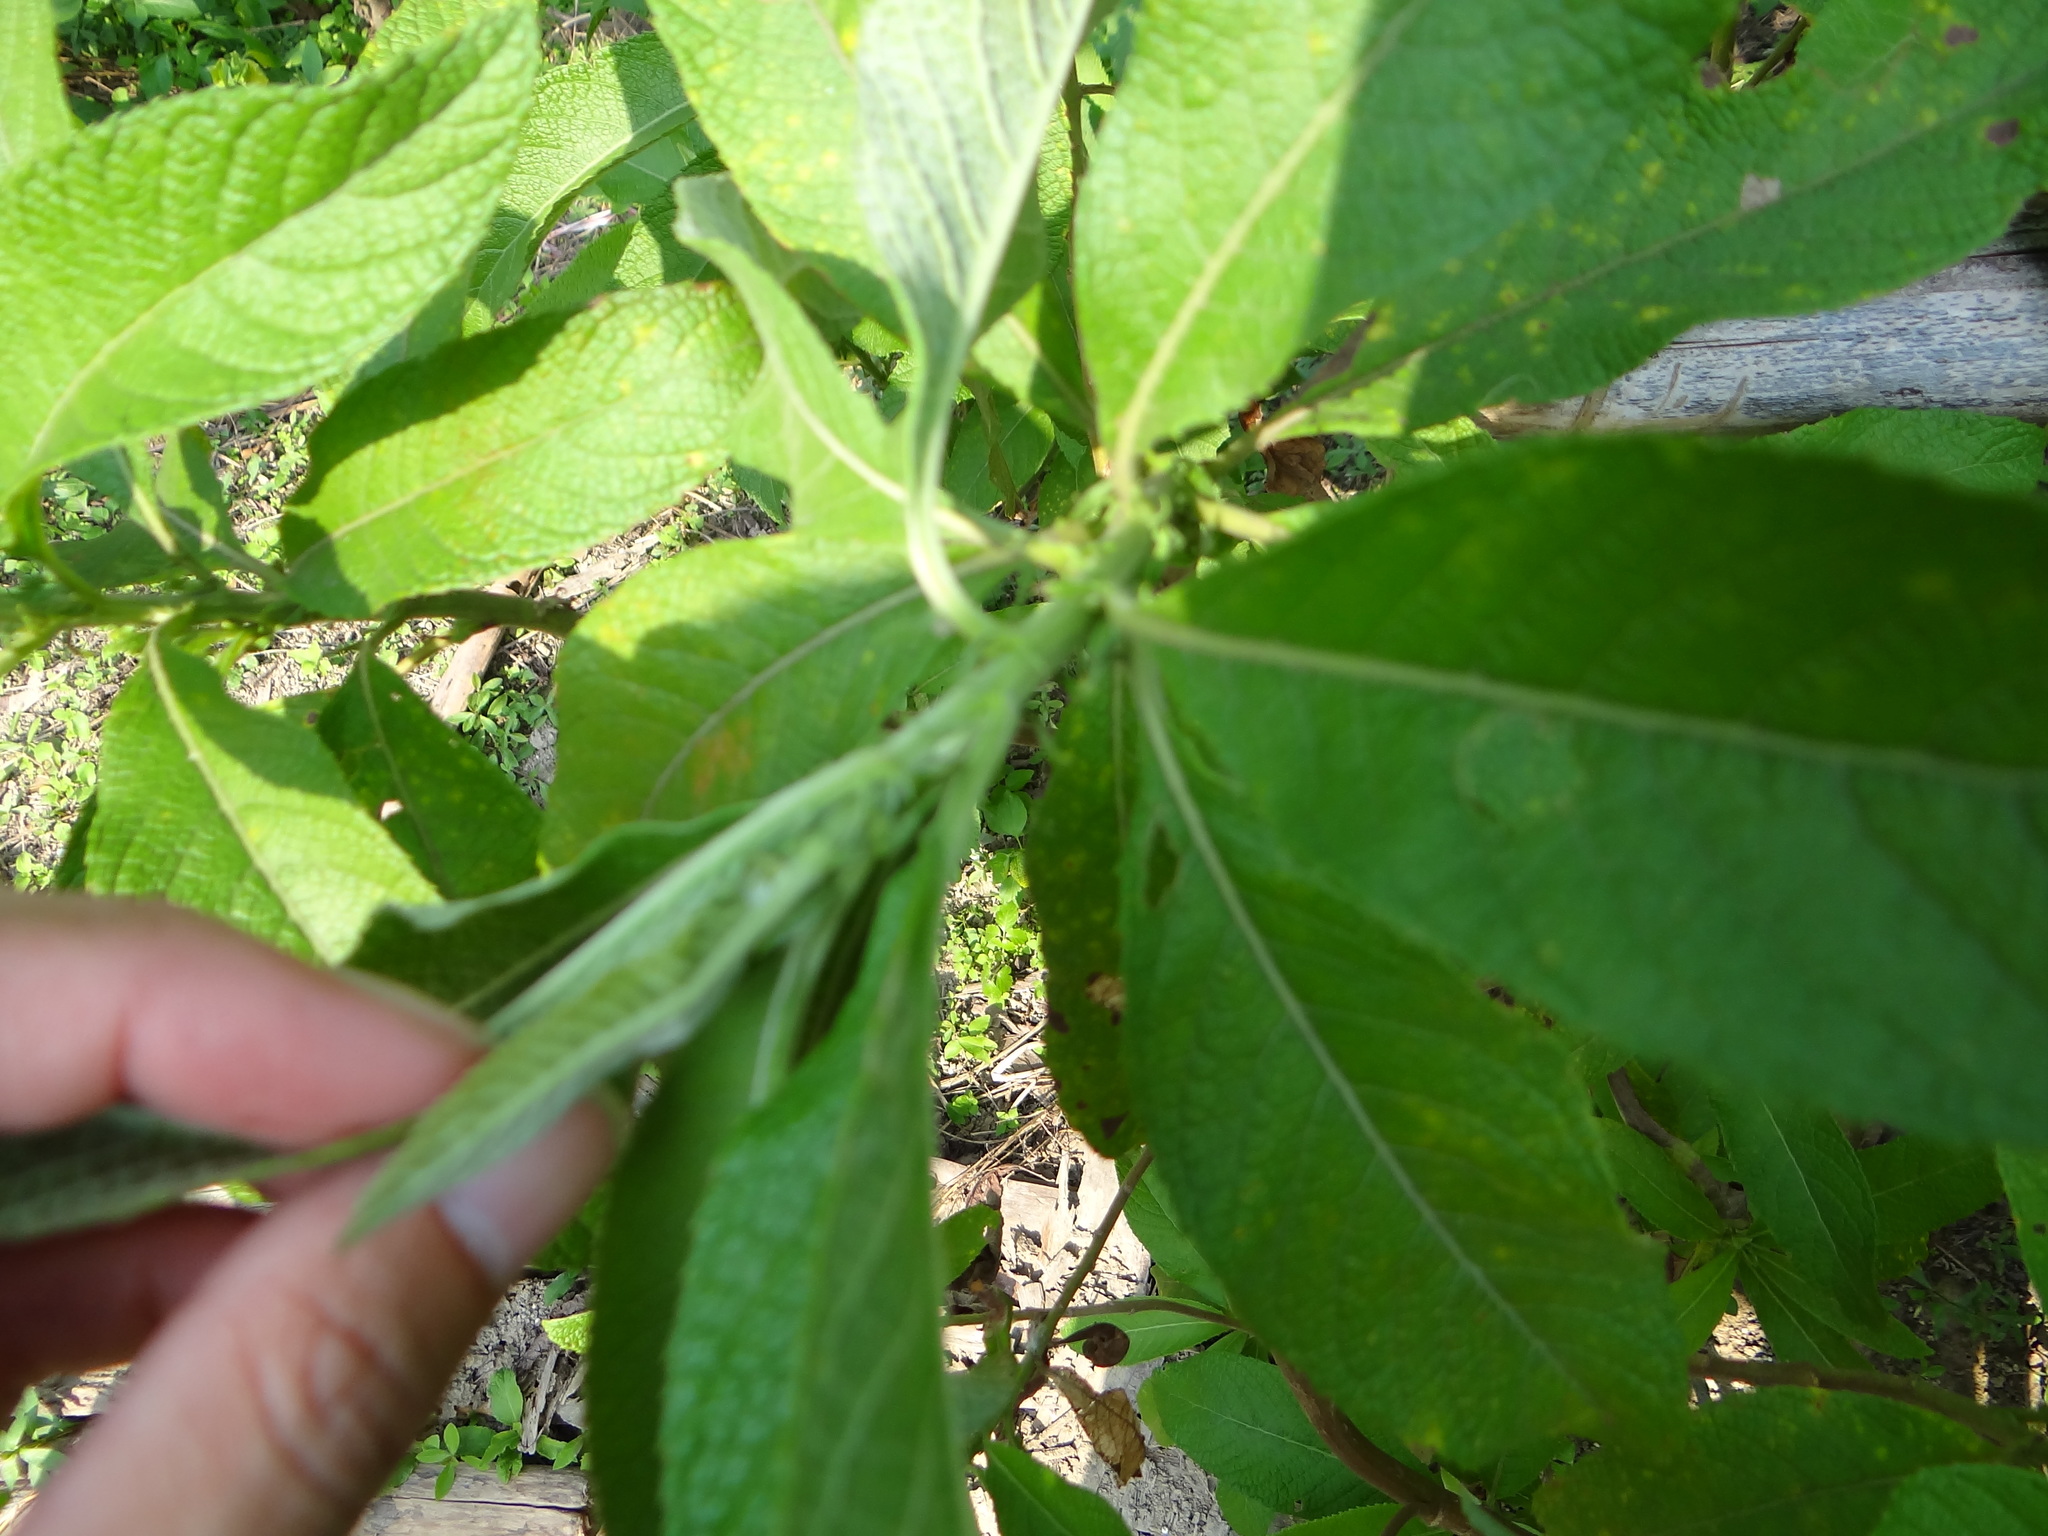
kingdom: Plantae
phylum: Tracheophyta
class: Magnoliopsida
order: Asterales
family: Asteraceae
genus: Blumea
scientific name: Blumea balsamifera
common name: Ngai camphor
